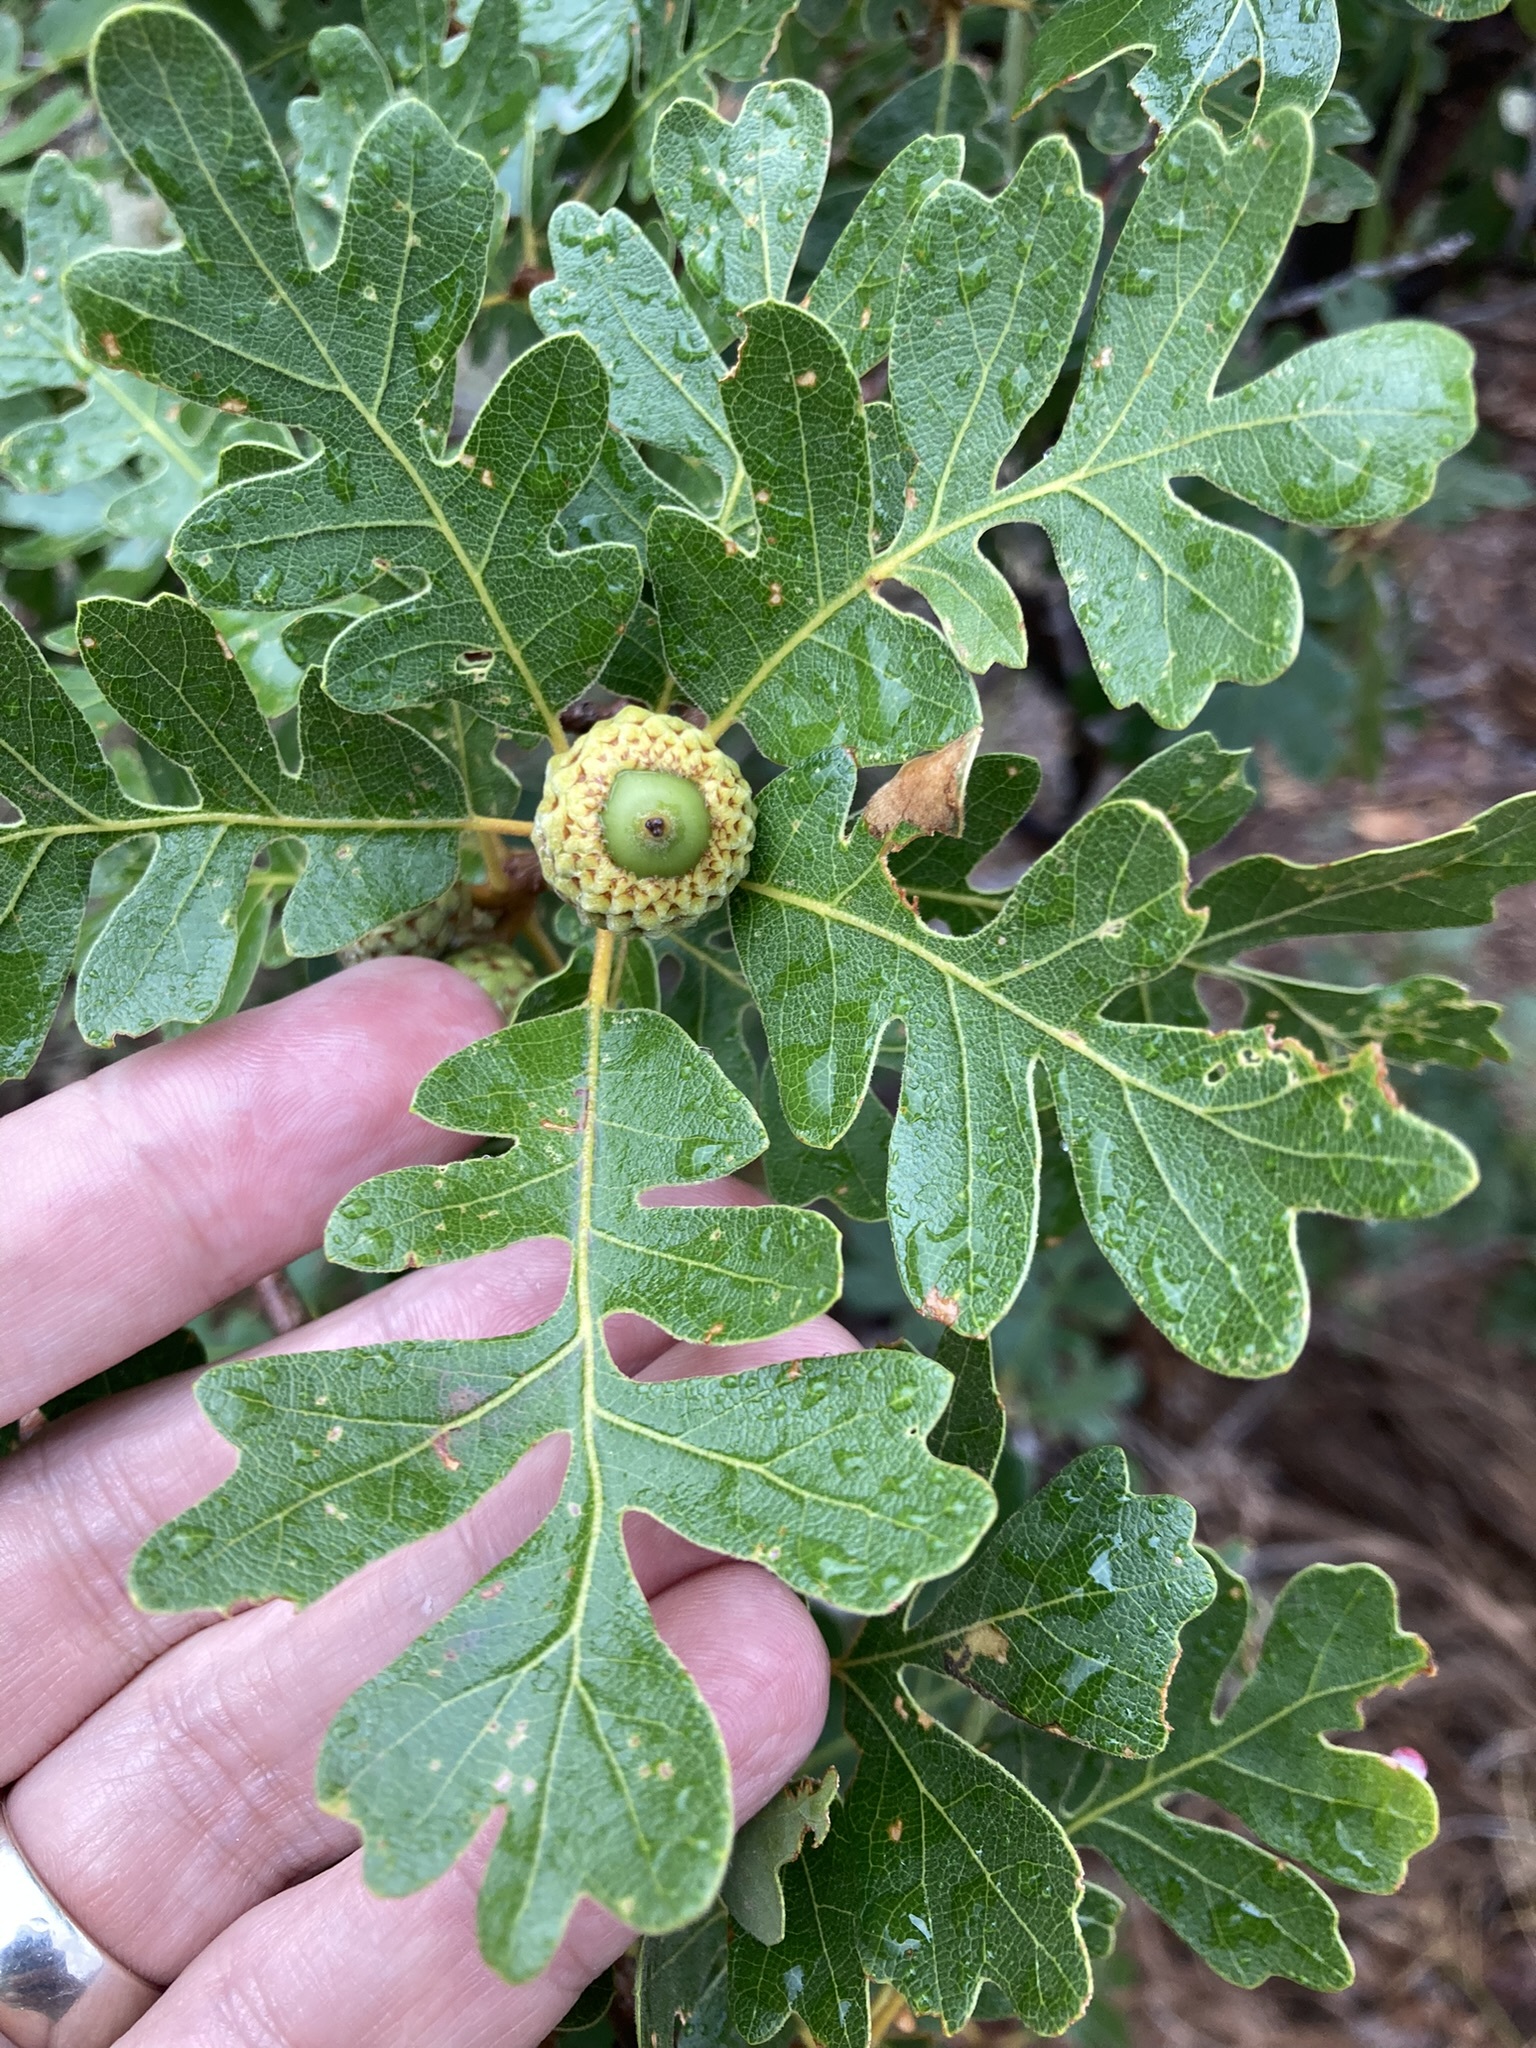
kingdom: Plantae
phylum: Tracheophyta
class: Magnoliopsida
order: Fagales
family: Fagaceae
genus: Quercus
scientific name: Quercus gambelii
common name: Gambel oak
